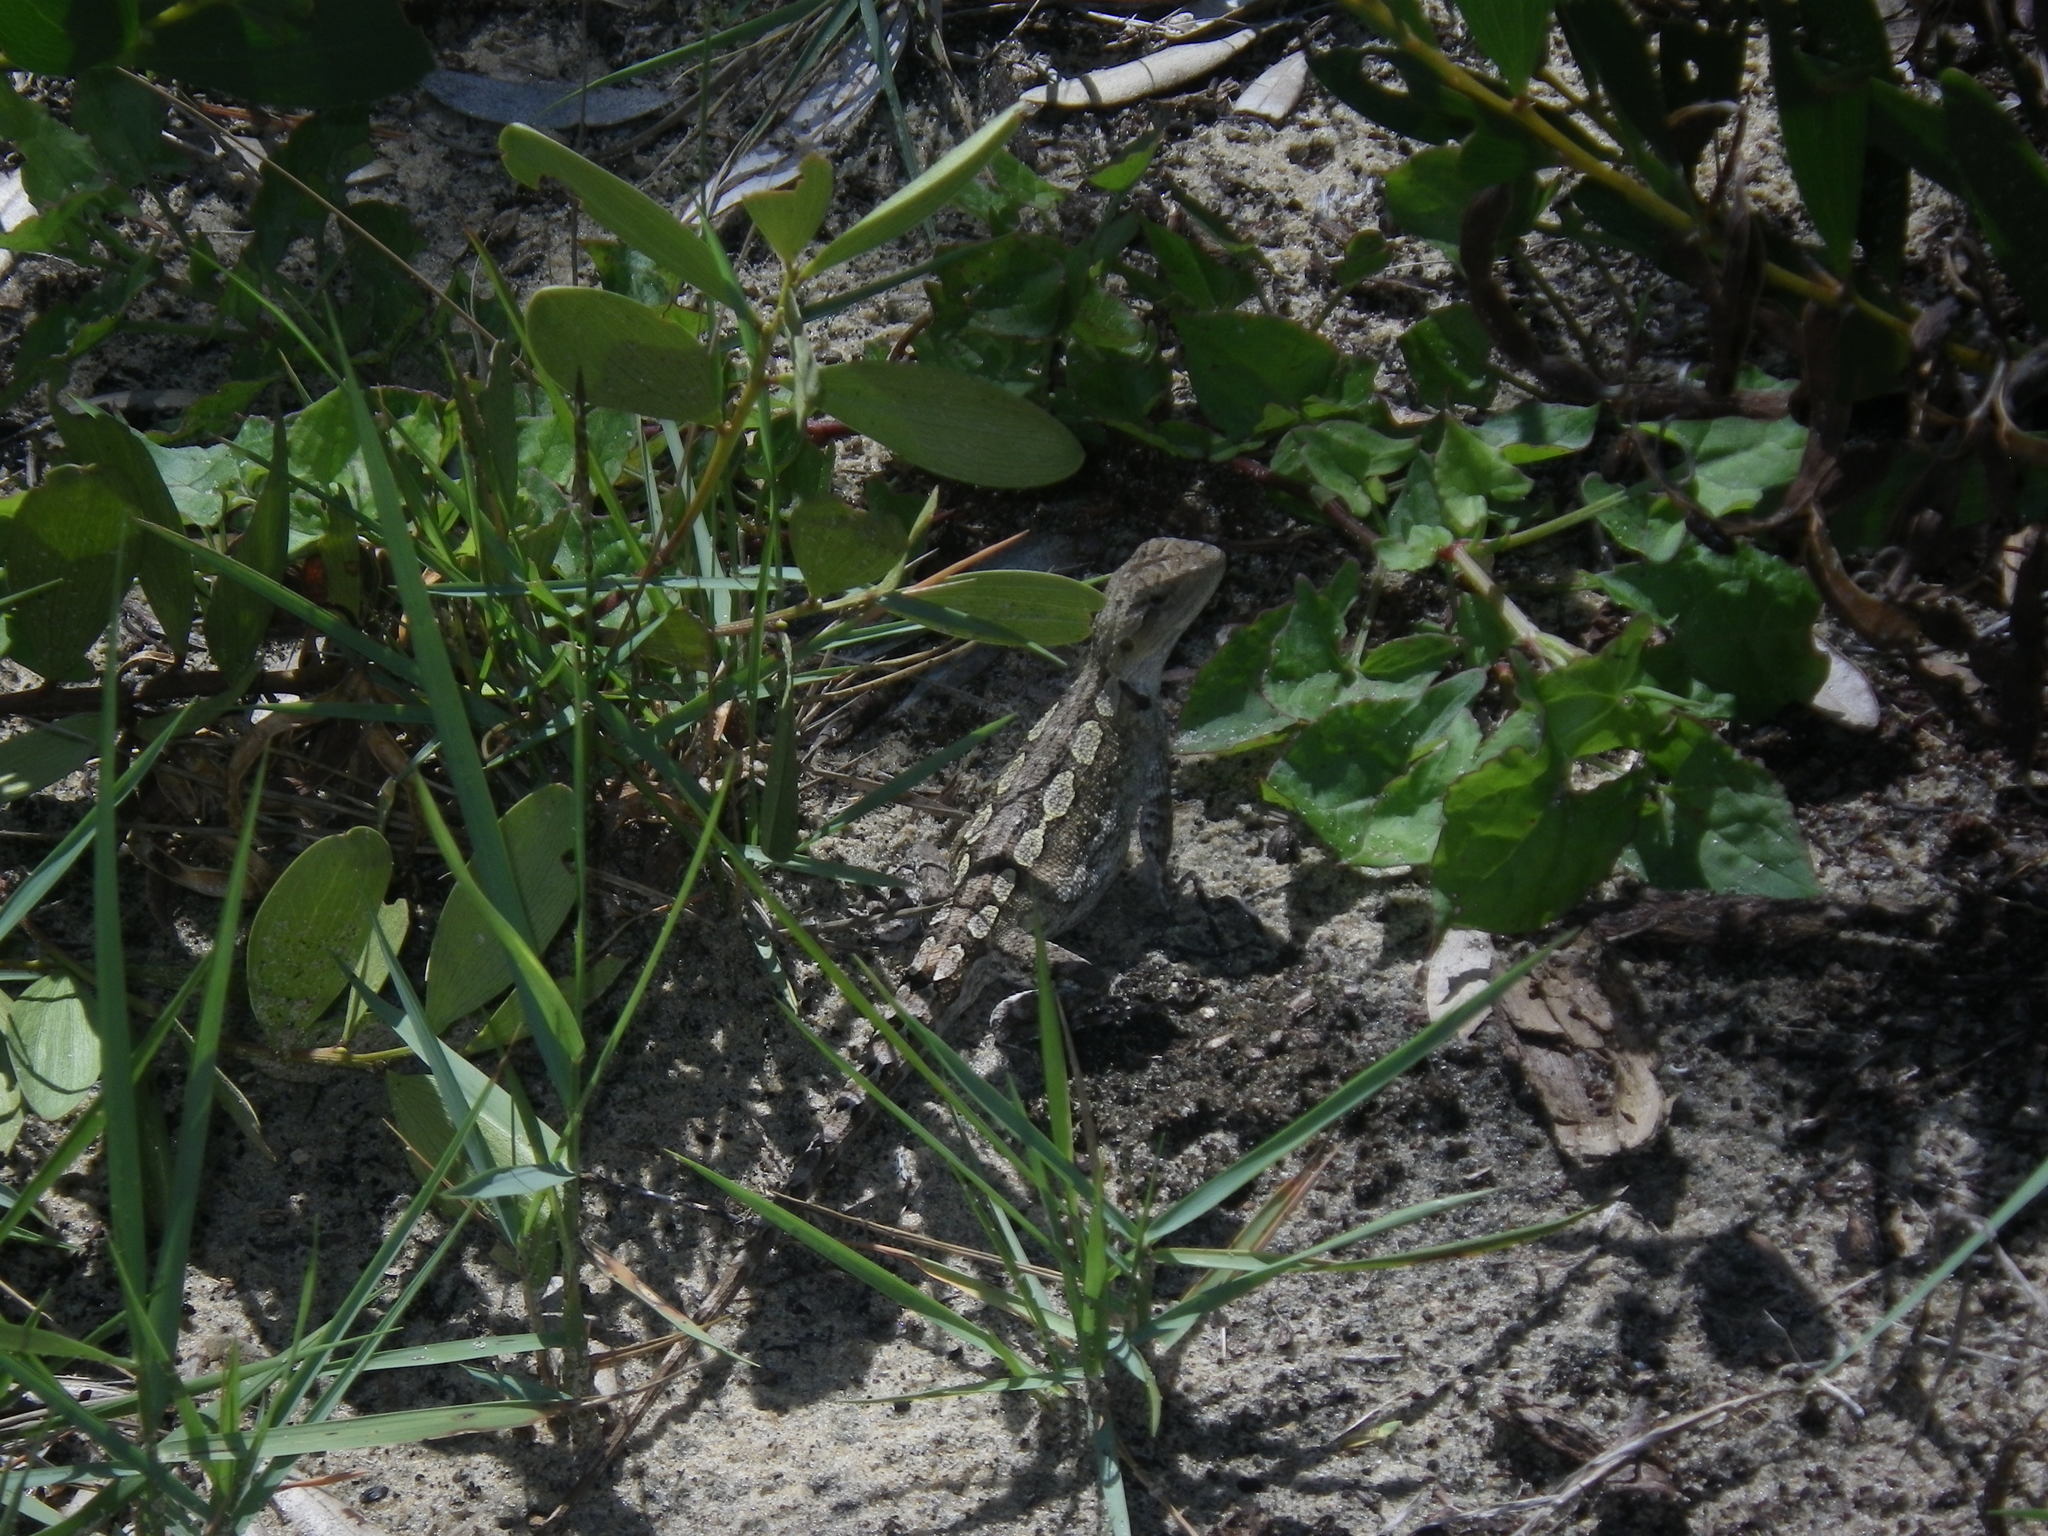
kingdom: Animalia
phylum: Chordata
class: Squamata
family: Agamidae
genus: Amphibolurus
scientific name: Amphibolurus muricatus
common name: Jacky lizard
